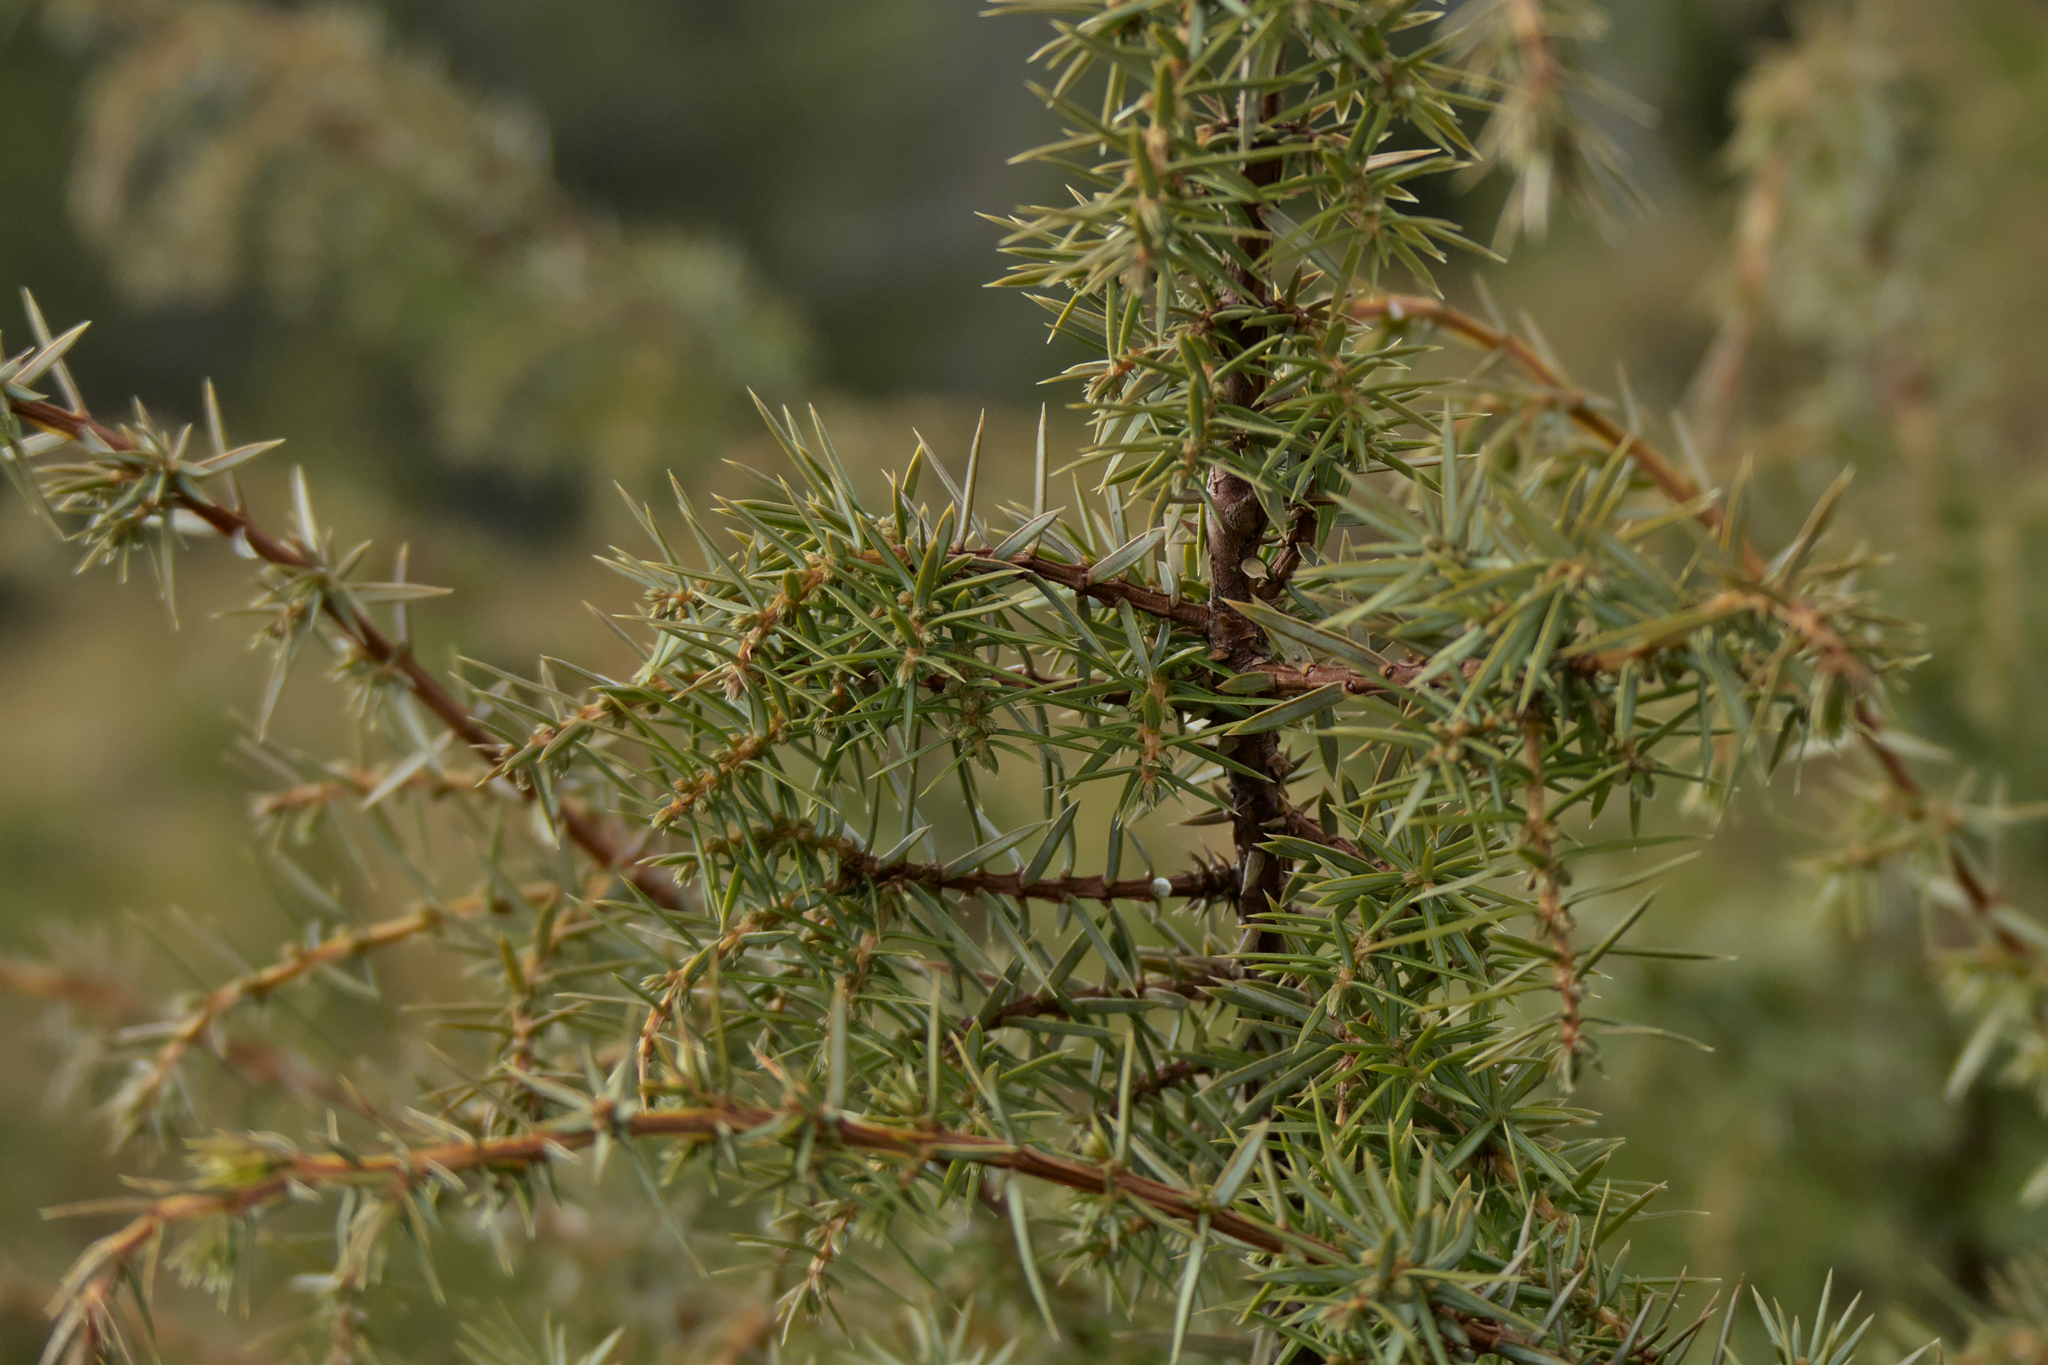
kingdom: Plantae
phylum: Tracheophyta
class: Pinopsida
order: Pinales
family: Cupressaceae
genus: Juniperus
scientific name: Juniperus communis
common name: Common juniper
